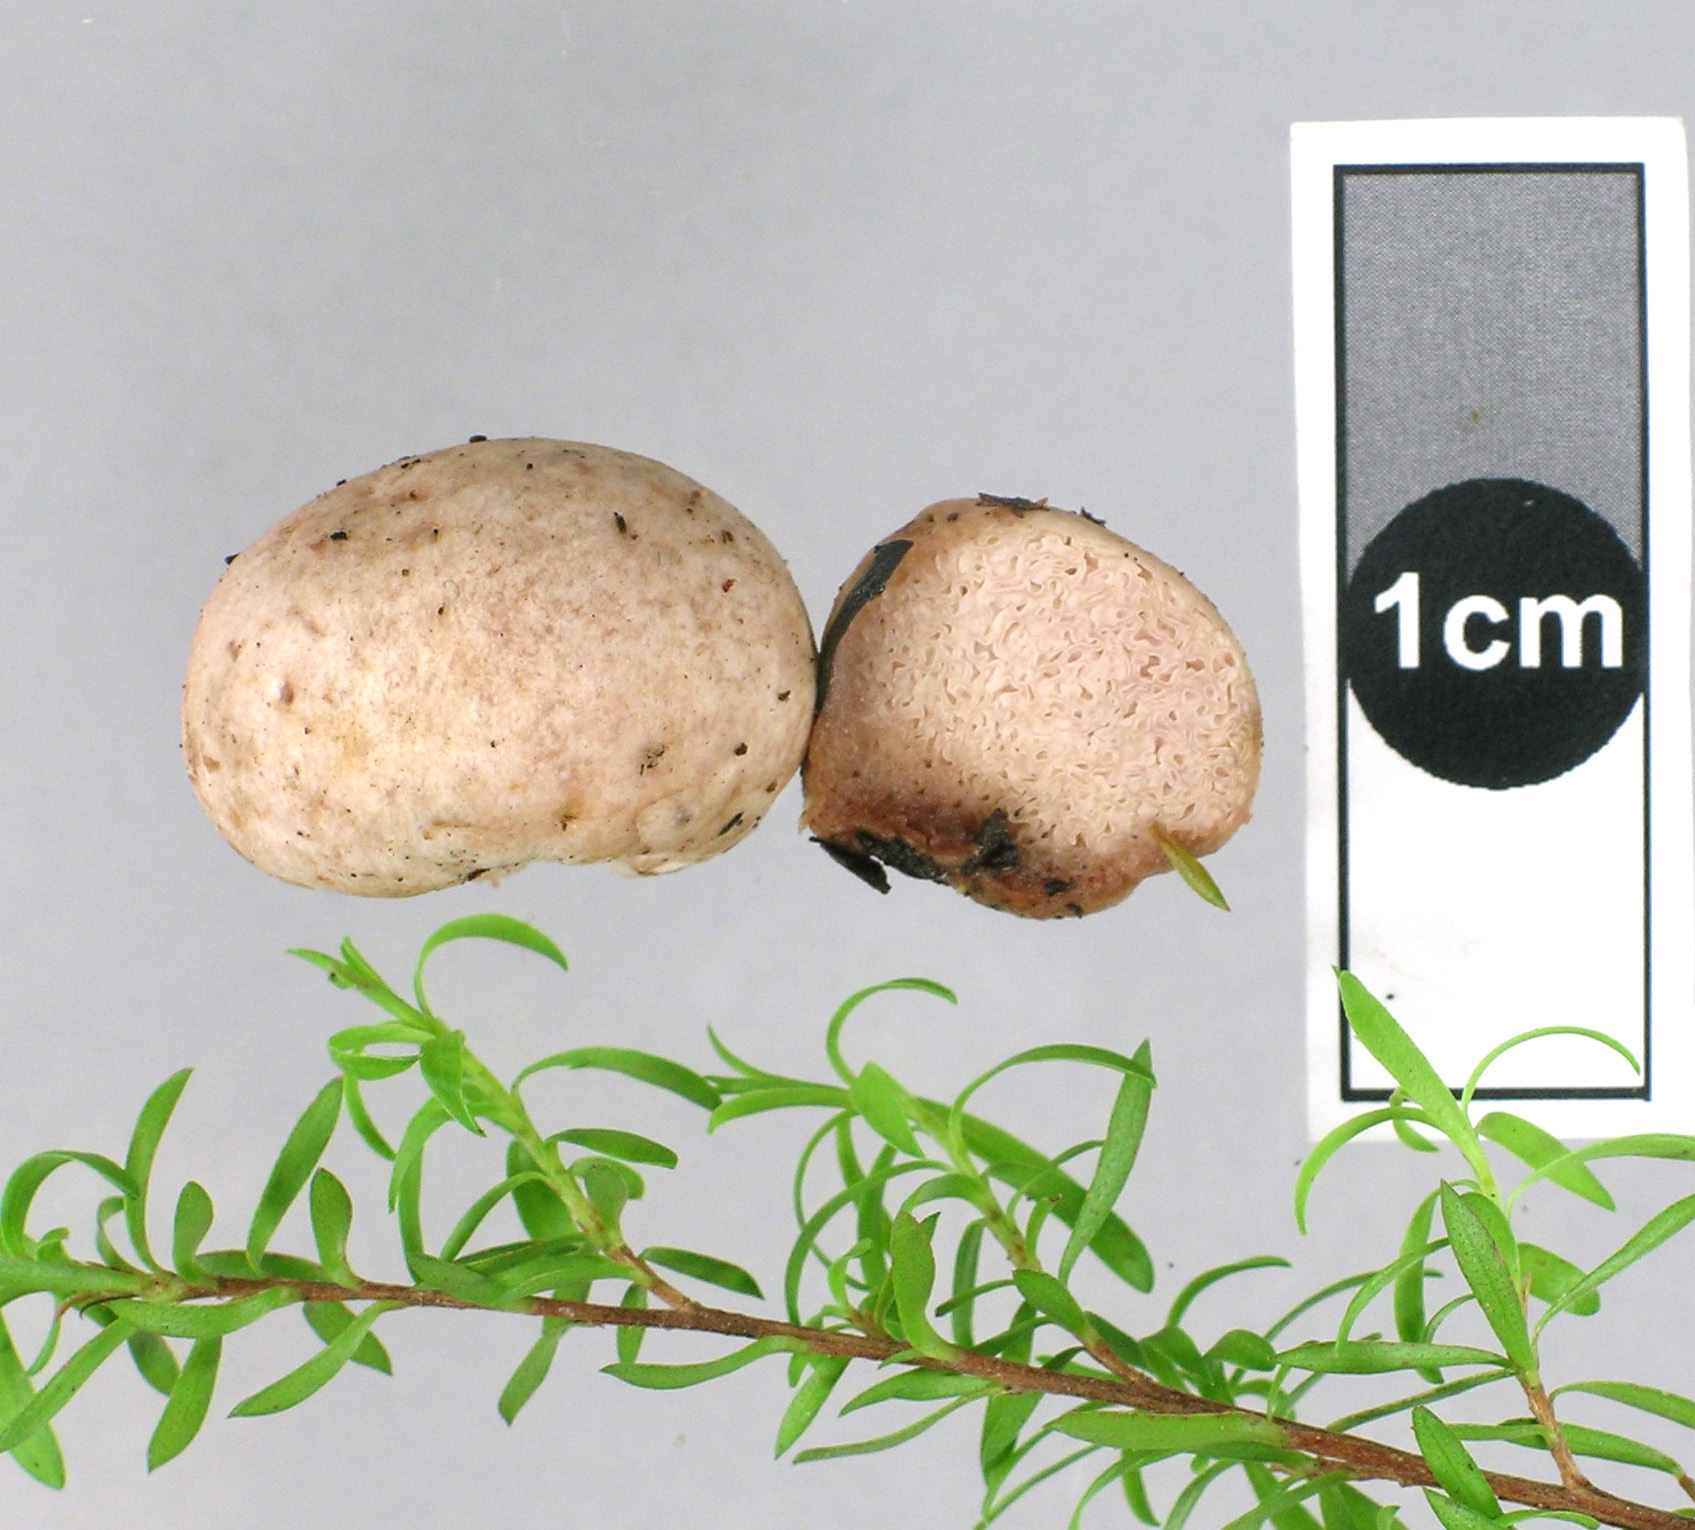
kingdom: Fungi
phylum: Basidiomycota
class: Agaricomycetes
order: Agaricales
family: Hydnangiaceae
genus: Hydnangium
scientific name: Hydnangium kanuka
